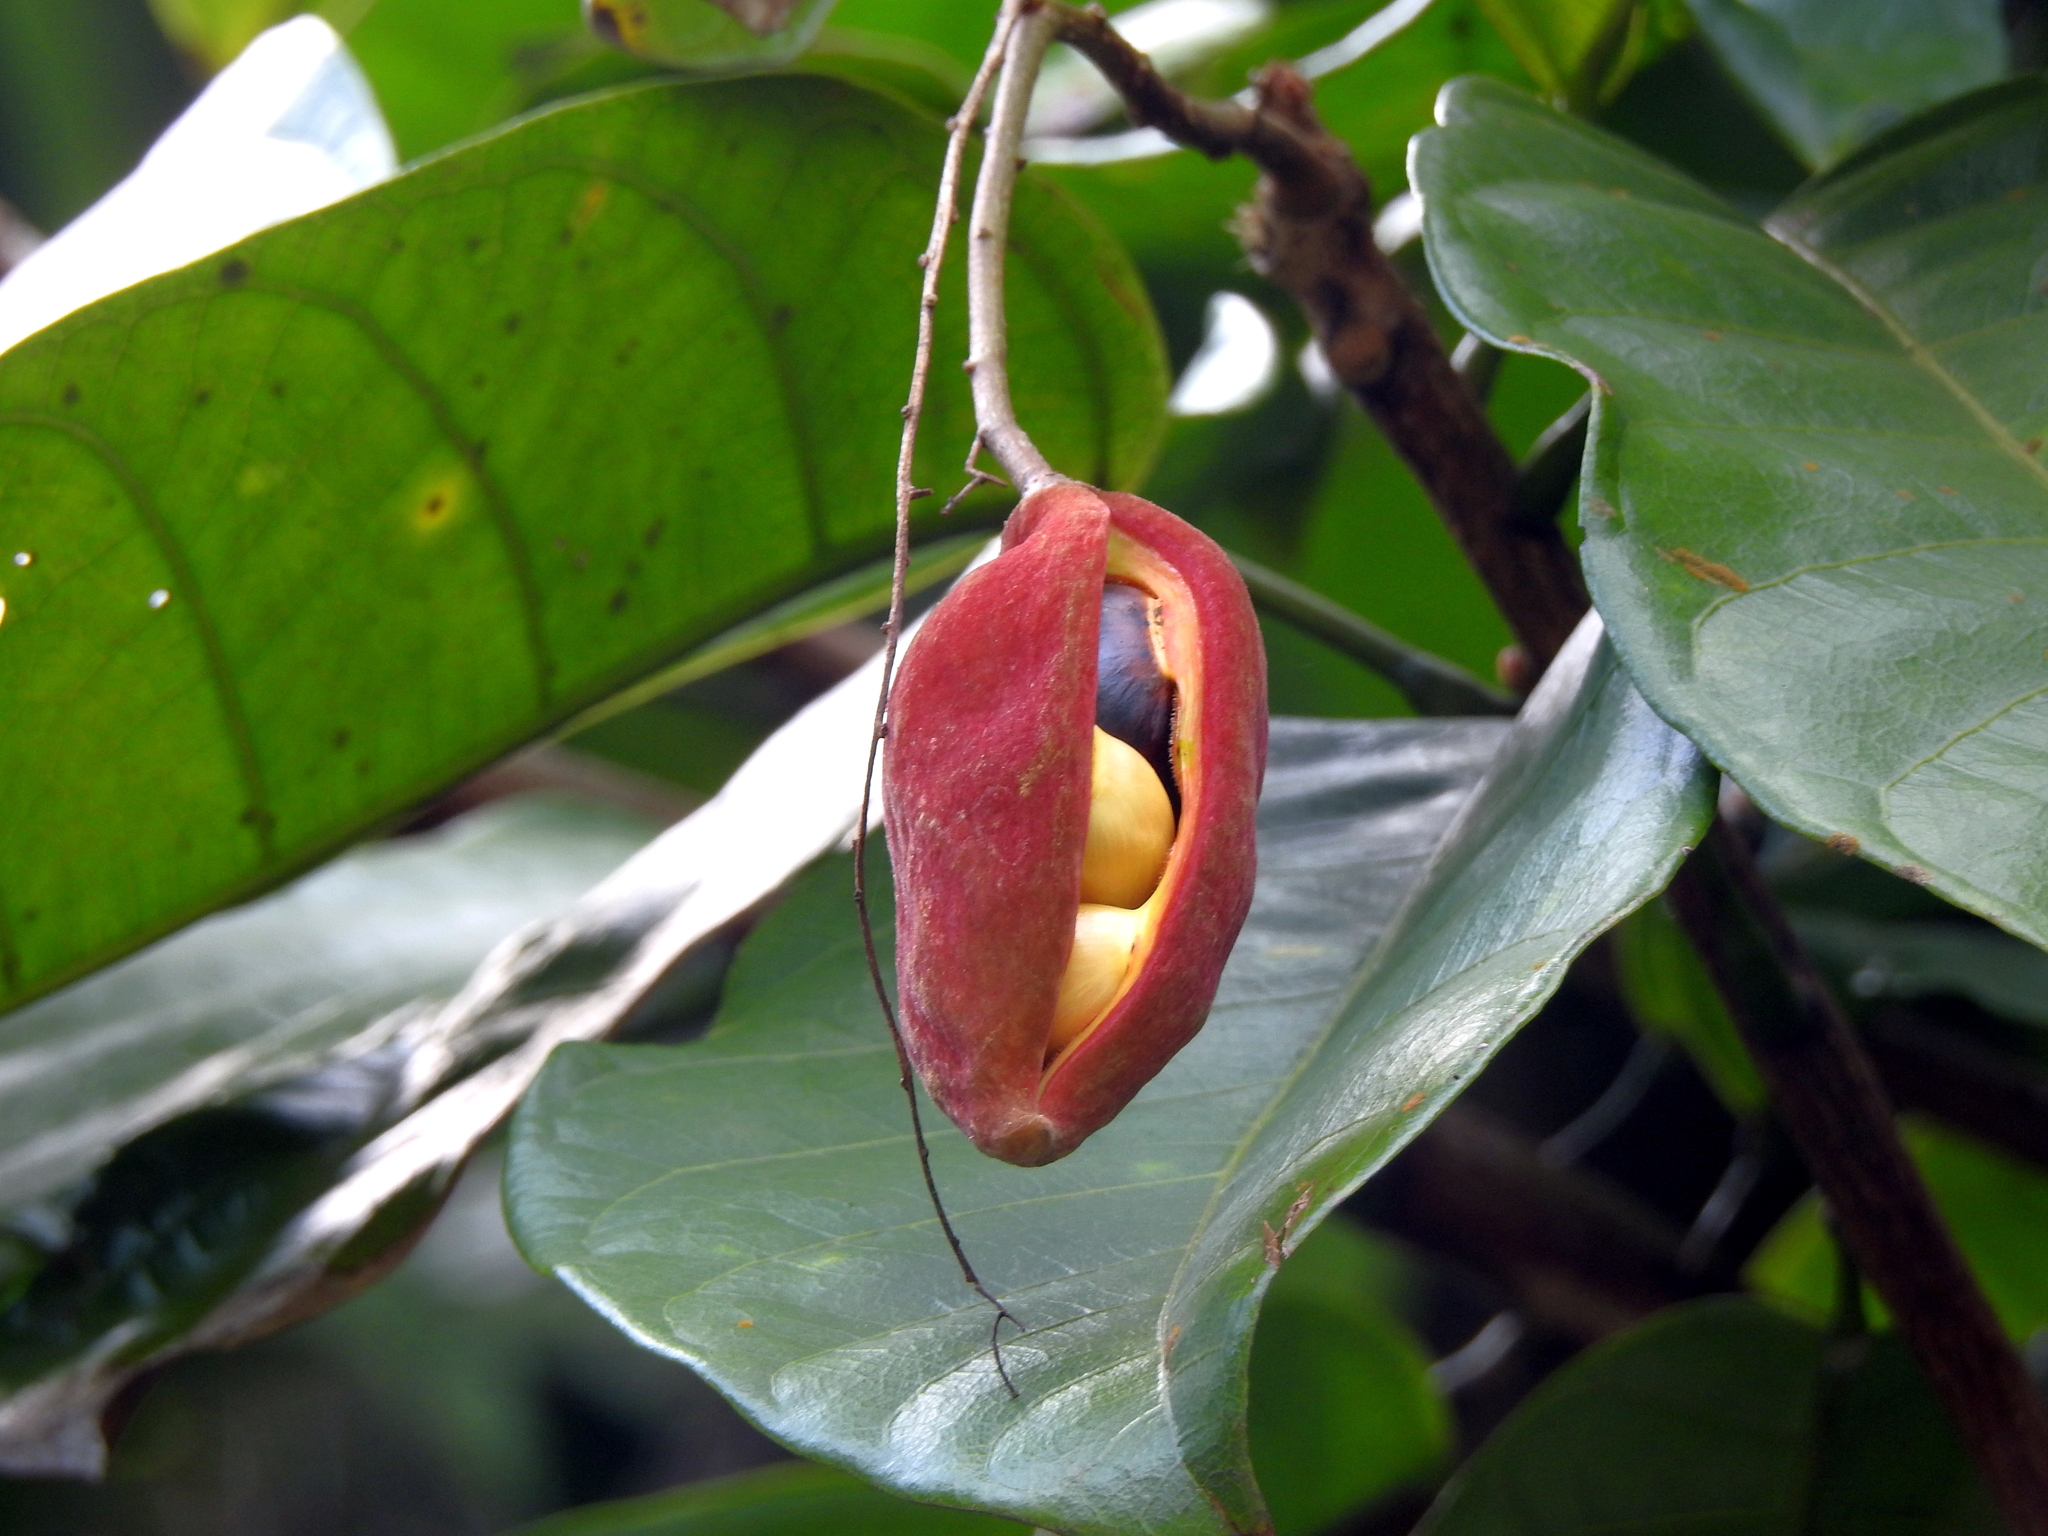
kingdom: Plantae
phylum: Tracheophyta
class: Magnoliopsida
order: Malvales
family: Malvaceae
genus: Sterculia
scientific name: Sterculia monosperma
